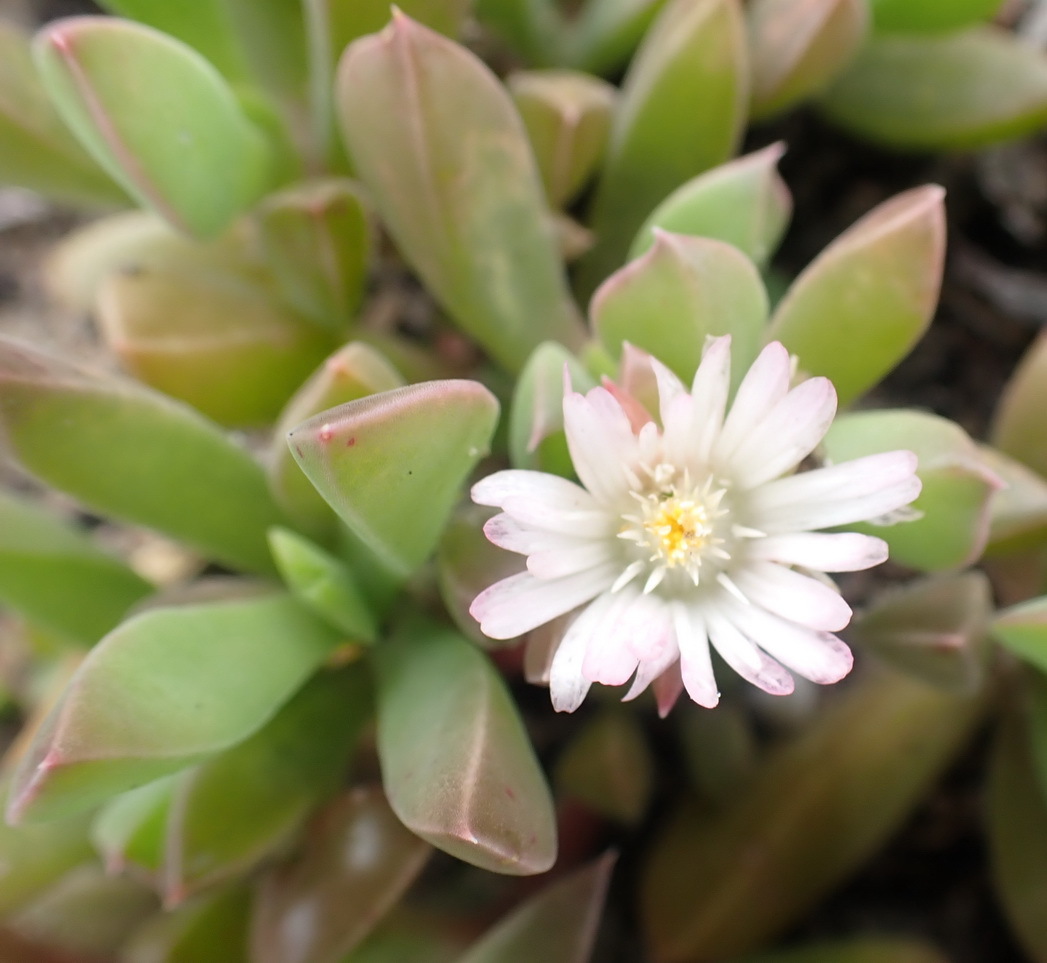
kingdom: Plantae
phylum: Tracheophyta
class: Magnoliopsida
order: Caryophyllales
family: Aizoaceae
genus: Delosperma
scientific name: Delosperma litorale
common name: Seaside delosperma
